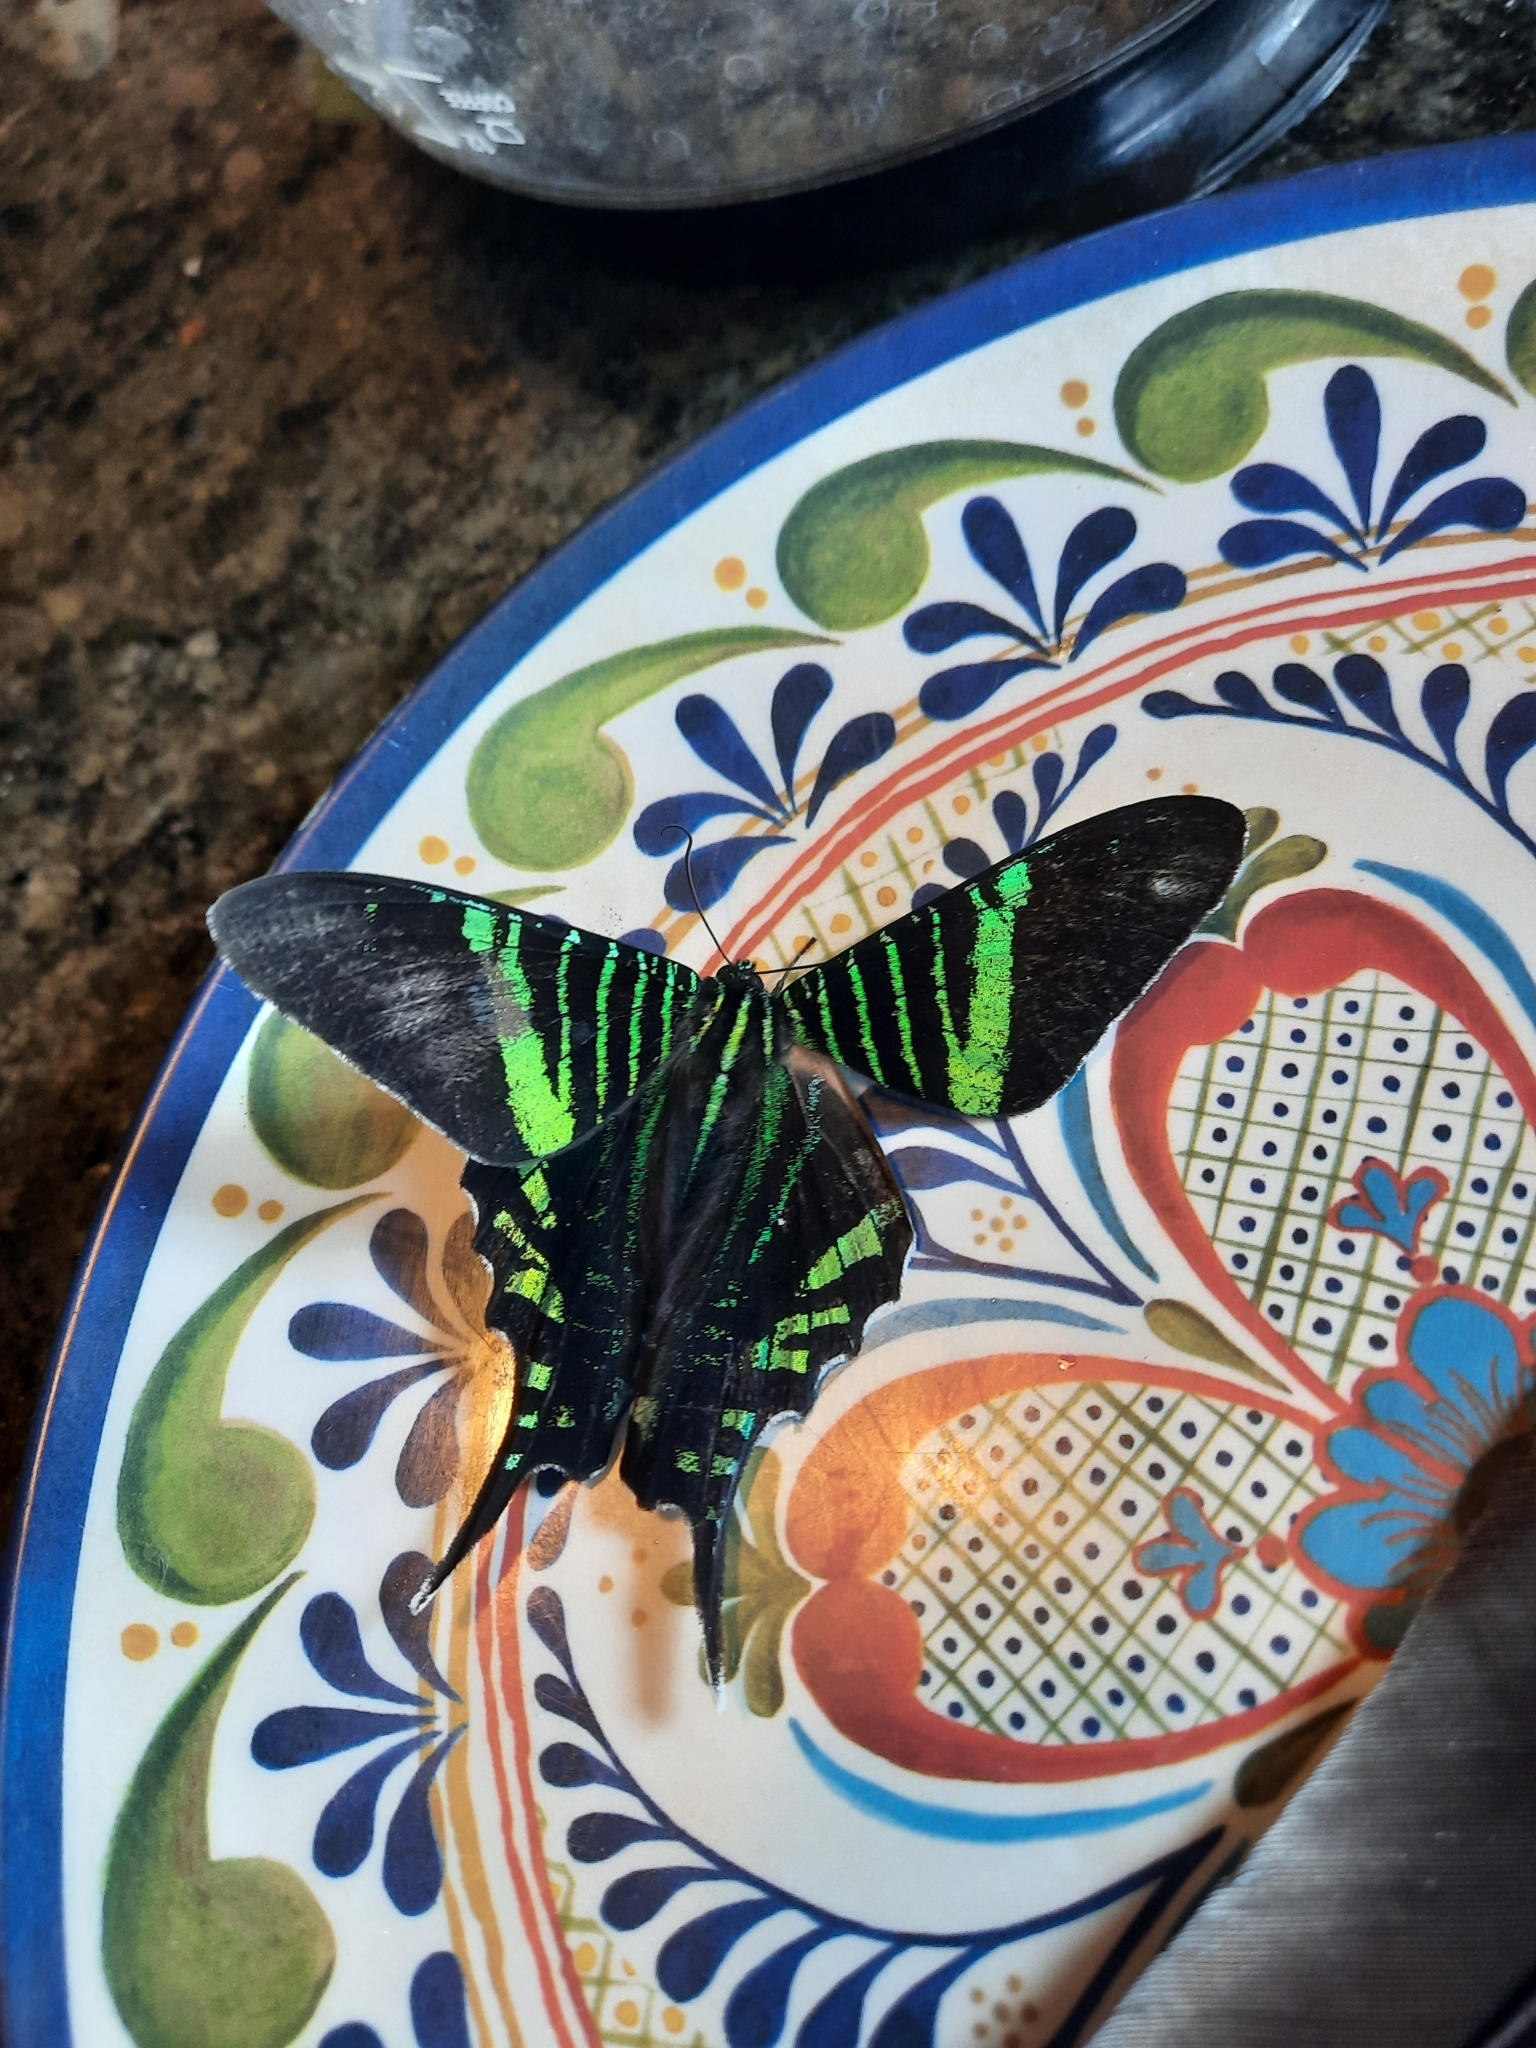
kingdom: Animalia
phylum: Arthropoda
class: Insecta
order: Lepidoptera
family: Uraniidae
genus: Urania
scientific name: Urania fulgens
